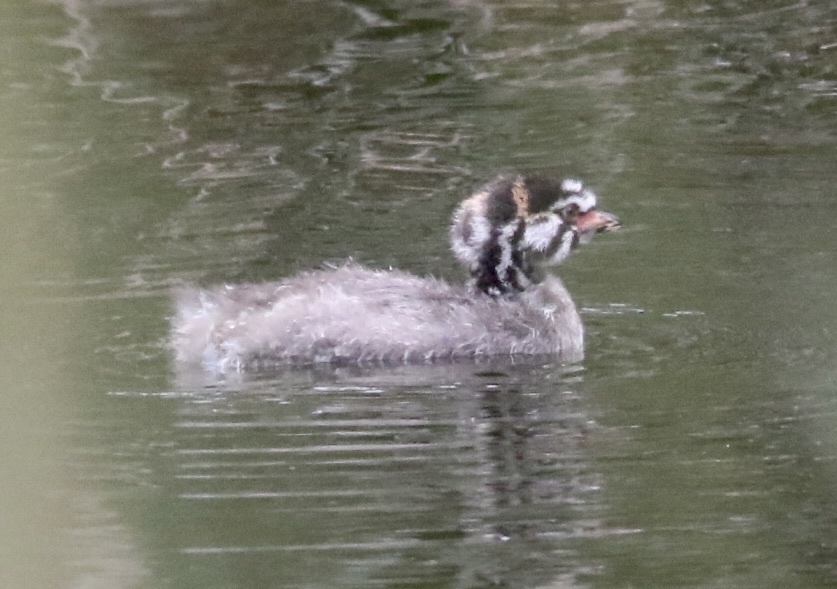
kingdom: Animalia
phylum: Chordata
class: Aves
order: Podicipediformes
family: Podicipedidae
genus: Podilymbus
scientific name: Podilymbus podiceps
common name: Pied-billed grebe
